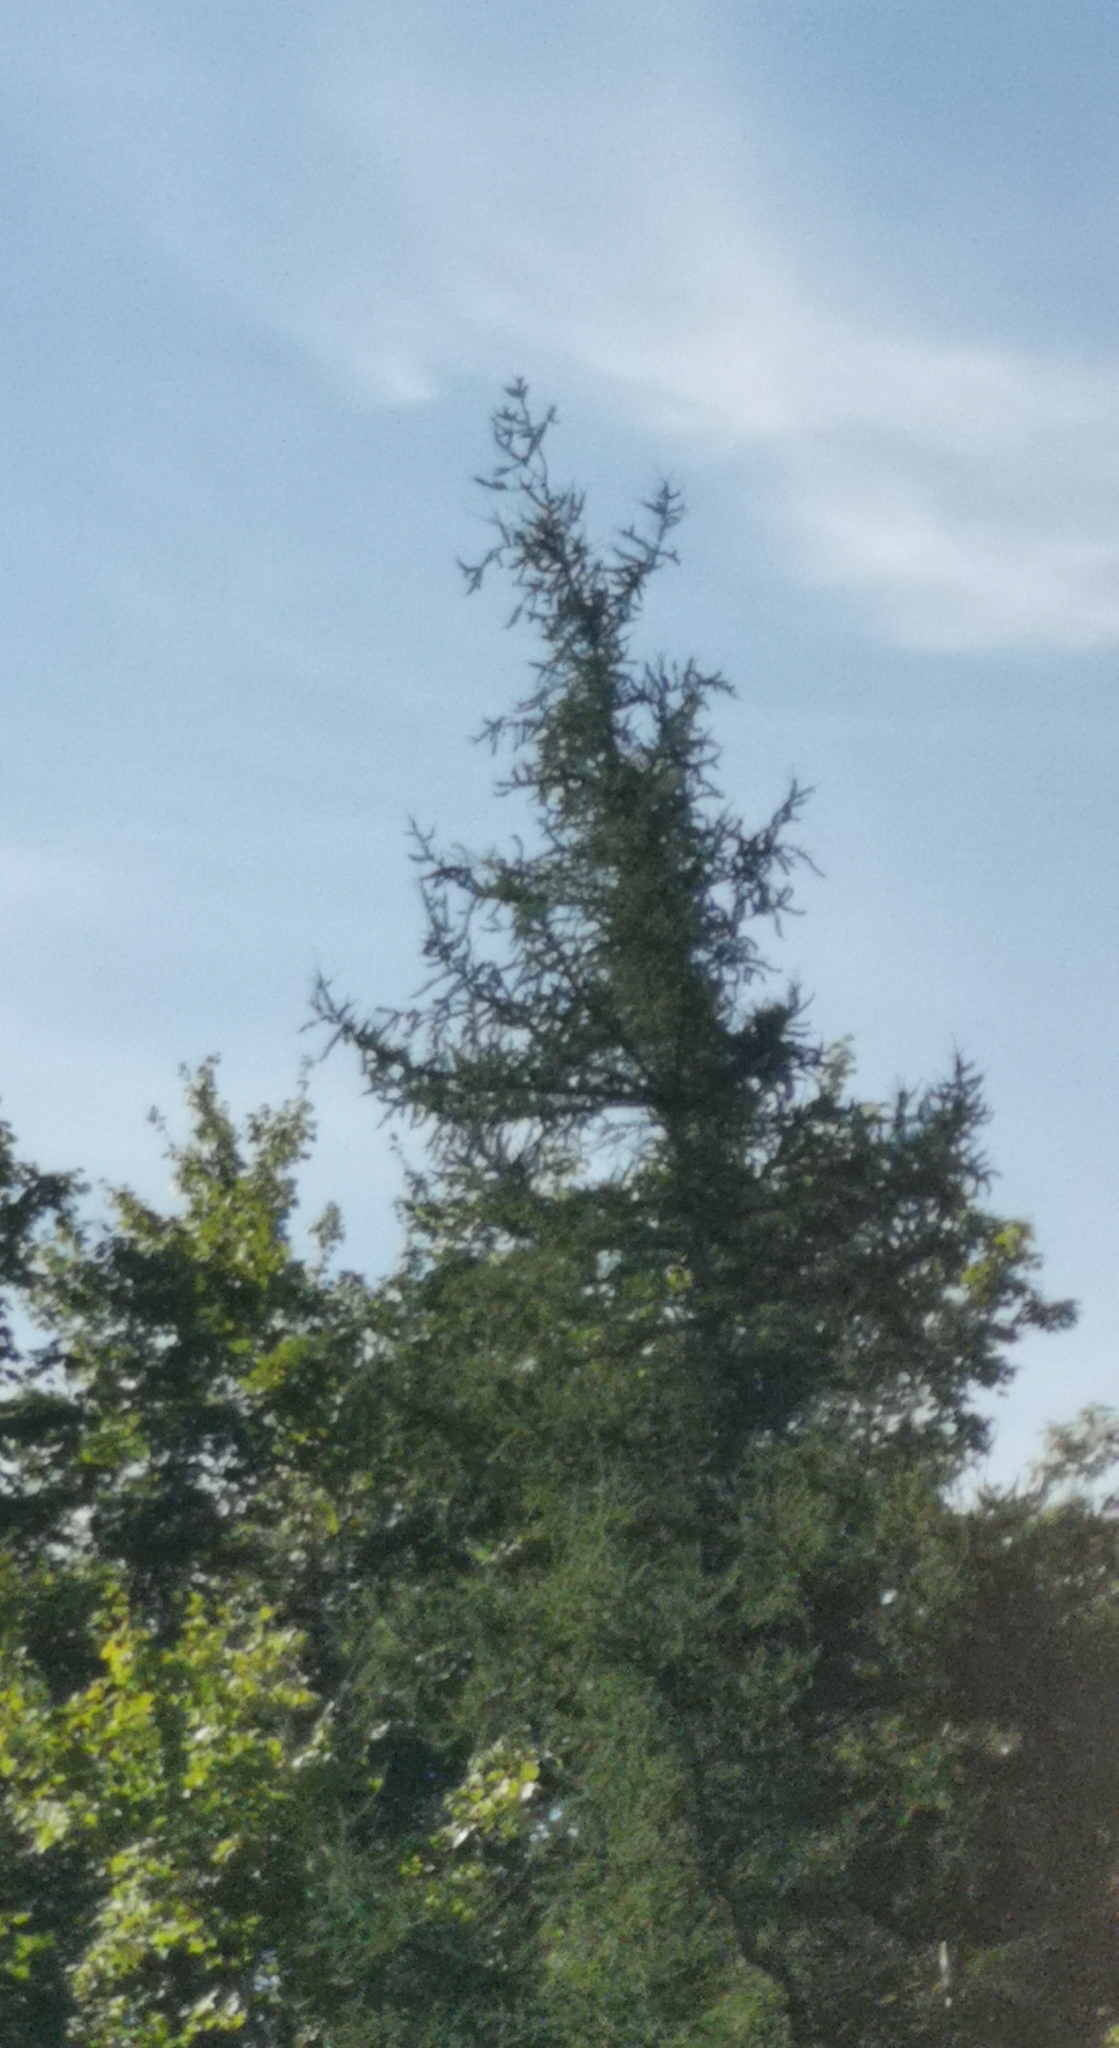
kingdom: Plantae
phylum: Tracheophyta
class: Pinopsida
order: Pinales
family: Pinaceae
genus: Larix
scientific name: Larix laricina
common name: American larch
